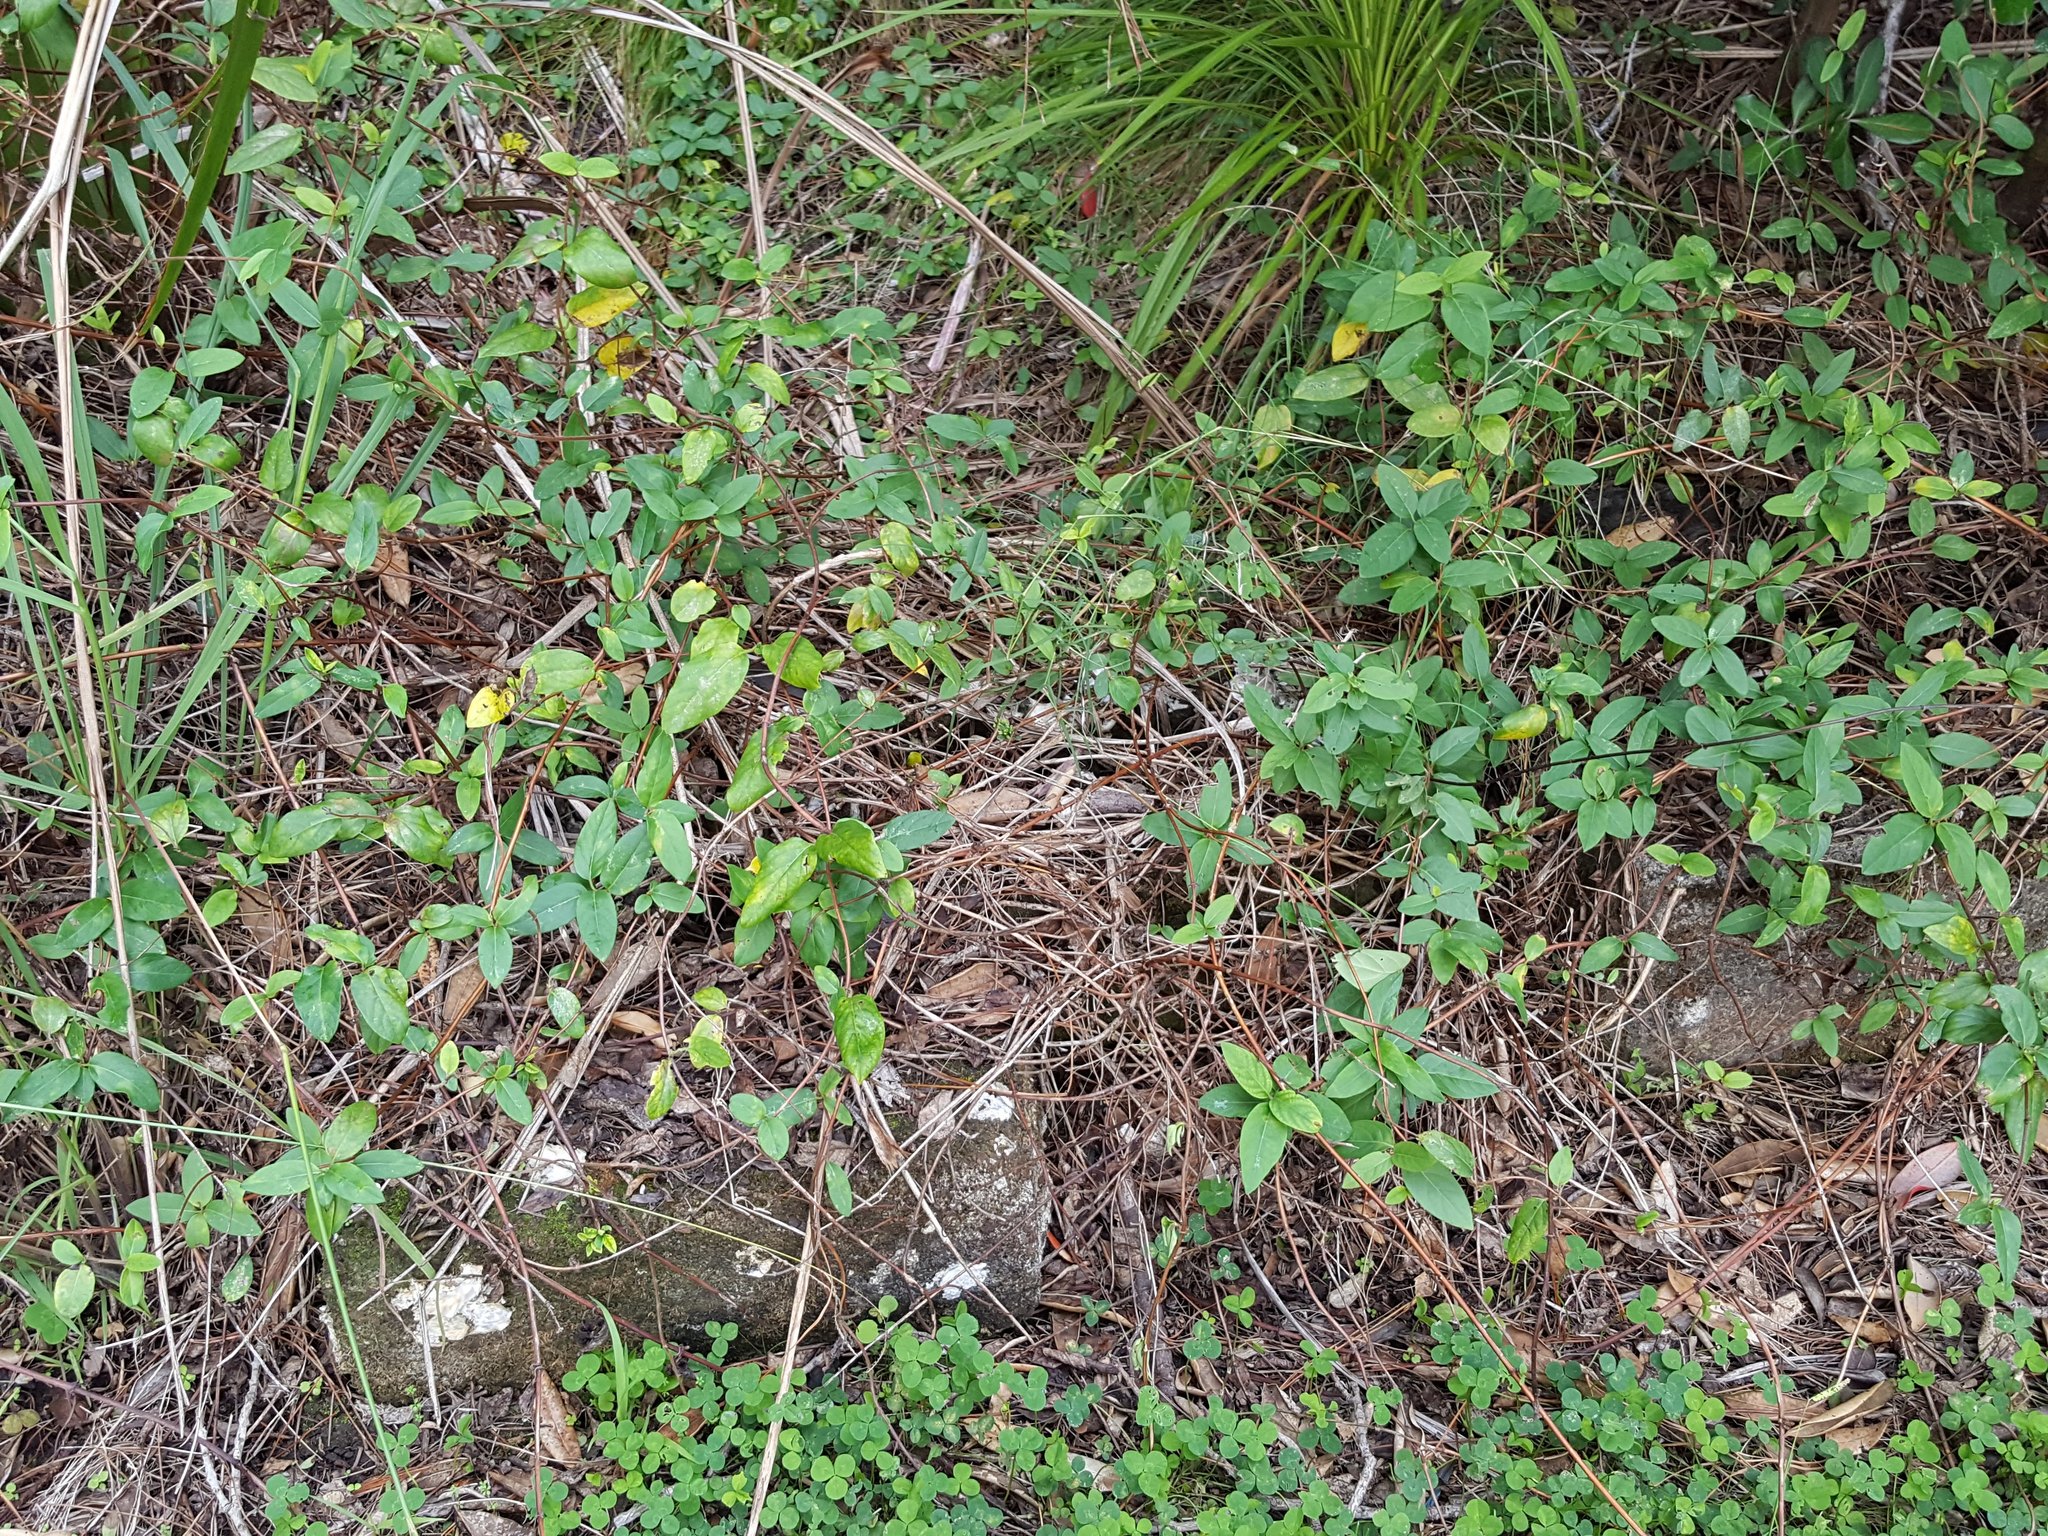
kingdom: Plantae
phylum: Tracheophyta
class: Magnoliopsida
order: Dipsacales
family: Caprifoliaceae
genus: Lonicera
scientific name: Lonicera japonica
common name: Japanese honeysuckle
